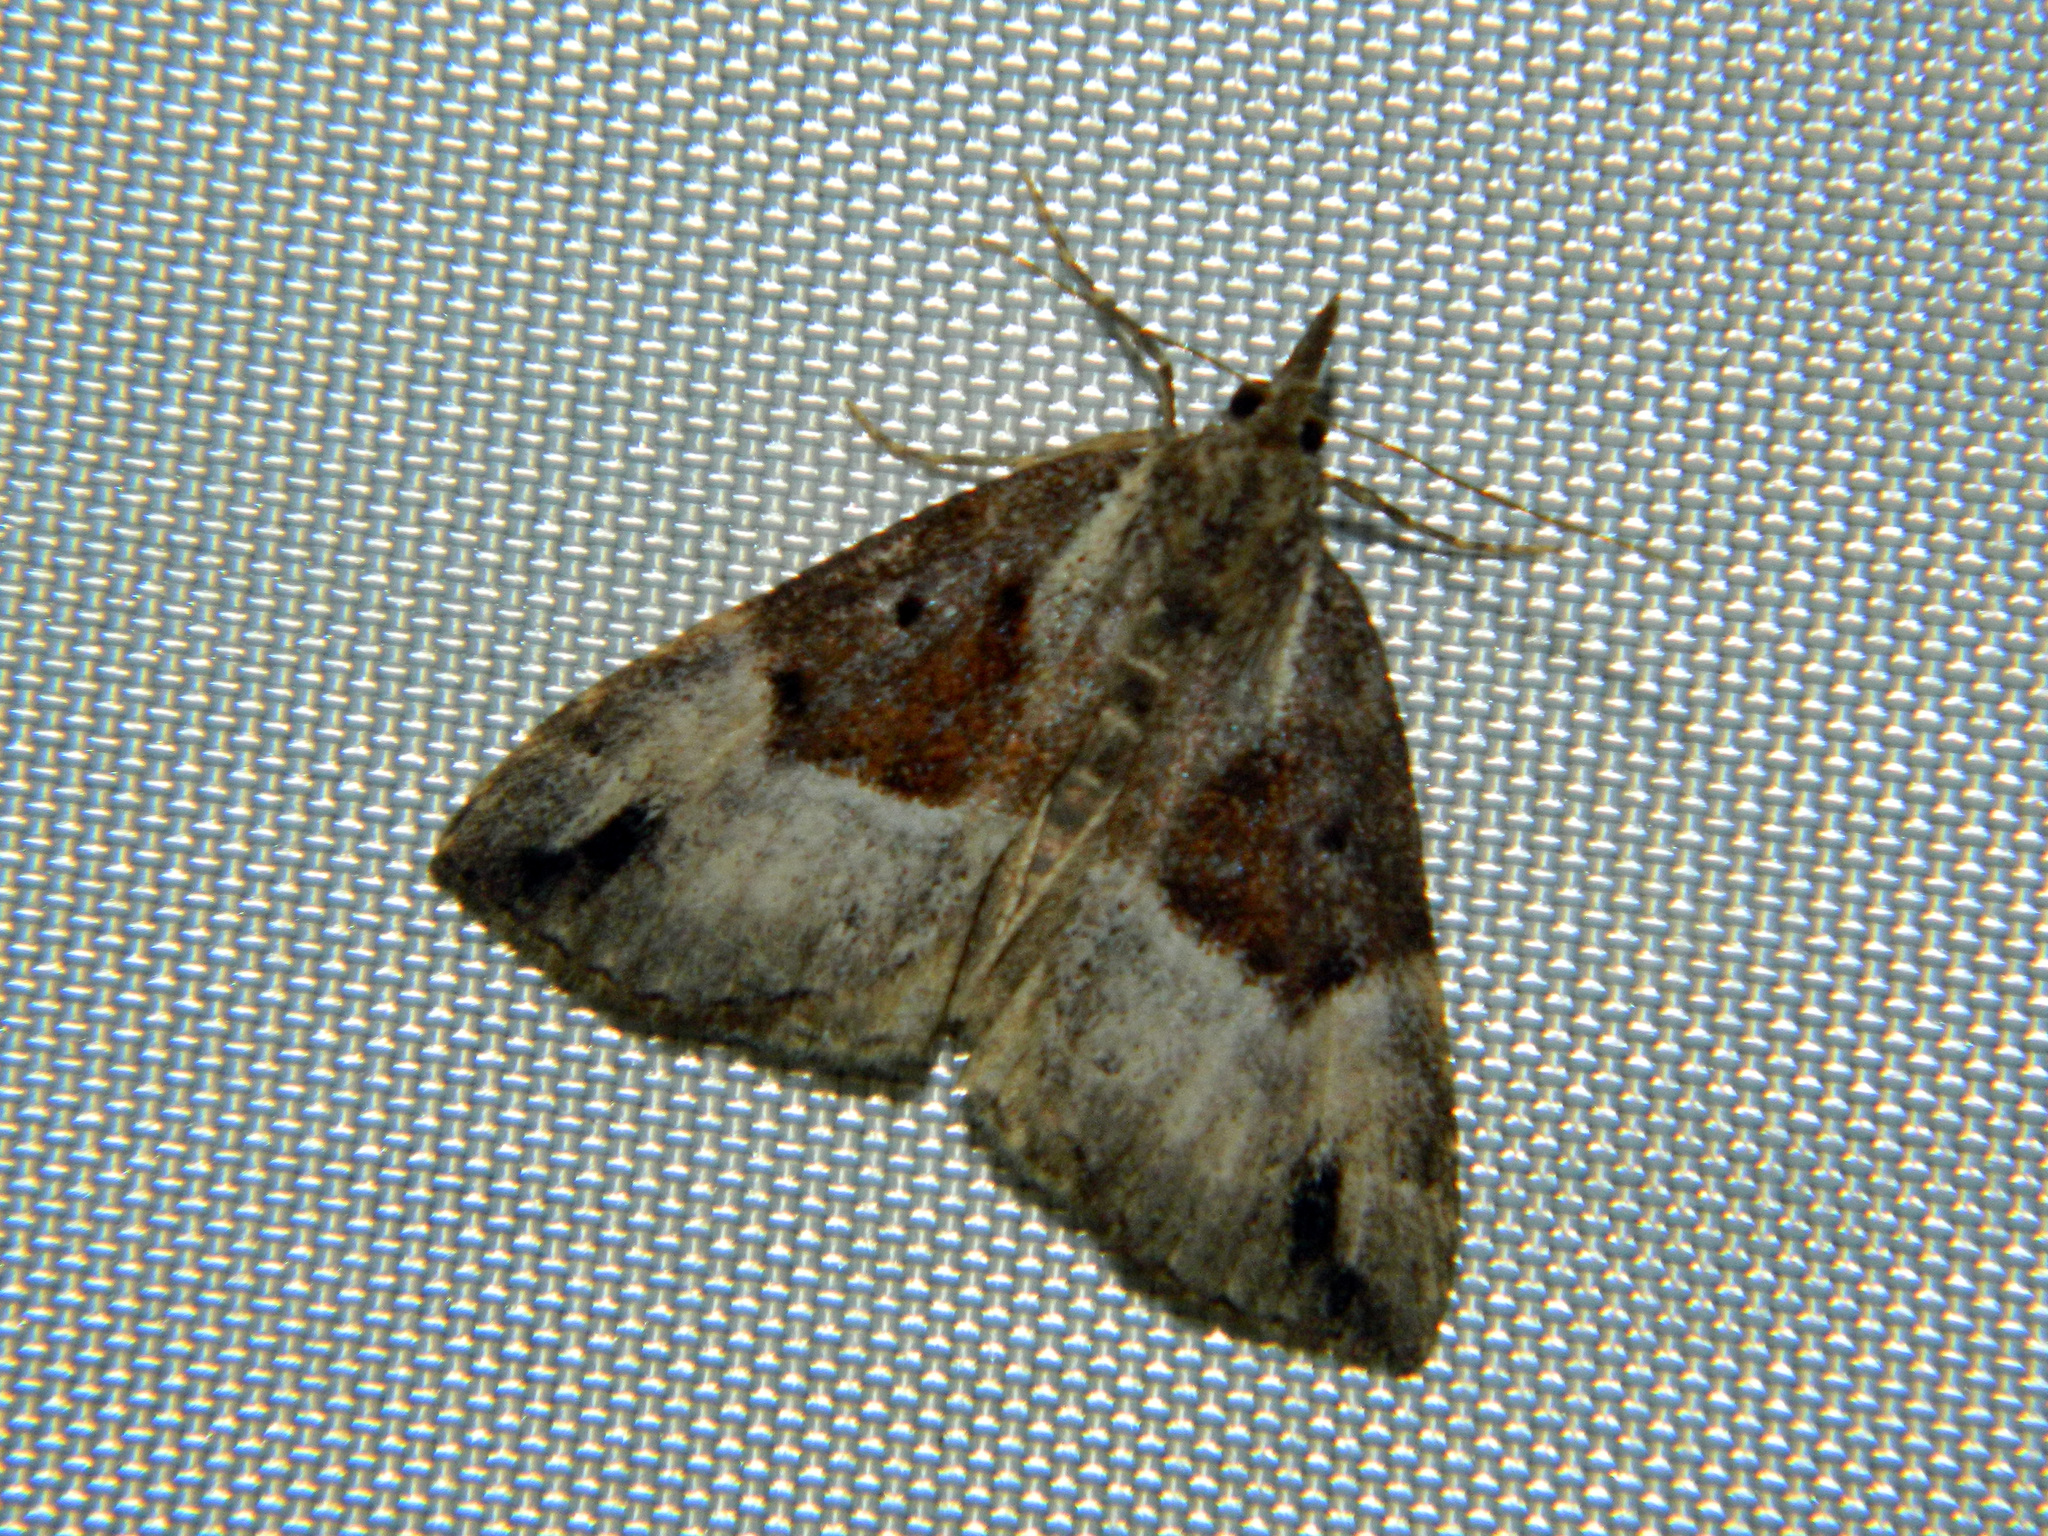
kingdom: Animalia
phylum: Arthropoda
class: Insecta
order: Lepidoptera
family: Erebidae
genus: Hypena
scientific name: Hypena palparia
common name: Mottled bomolocha moth
